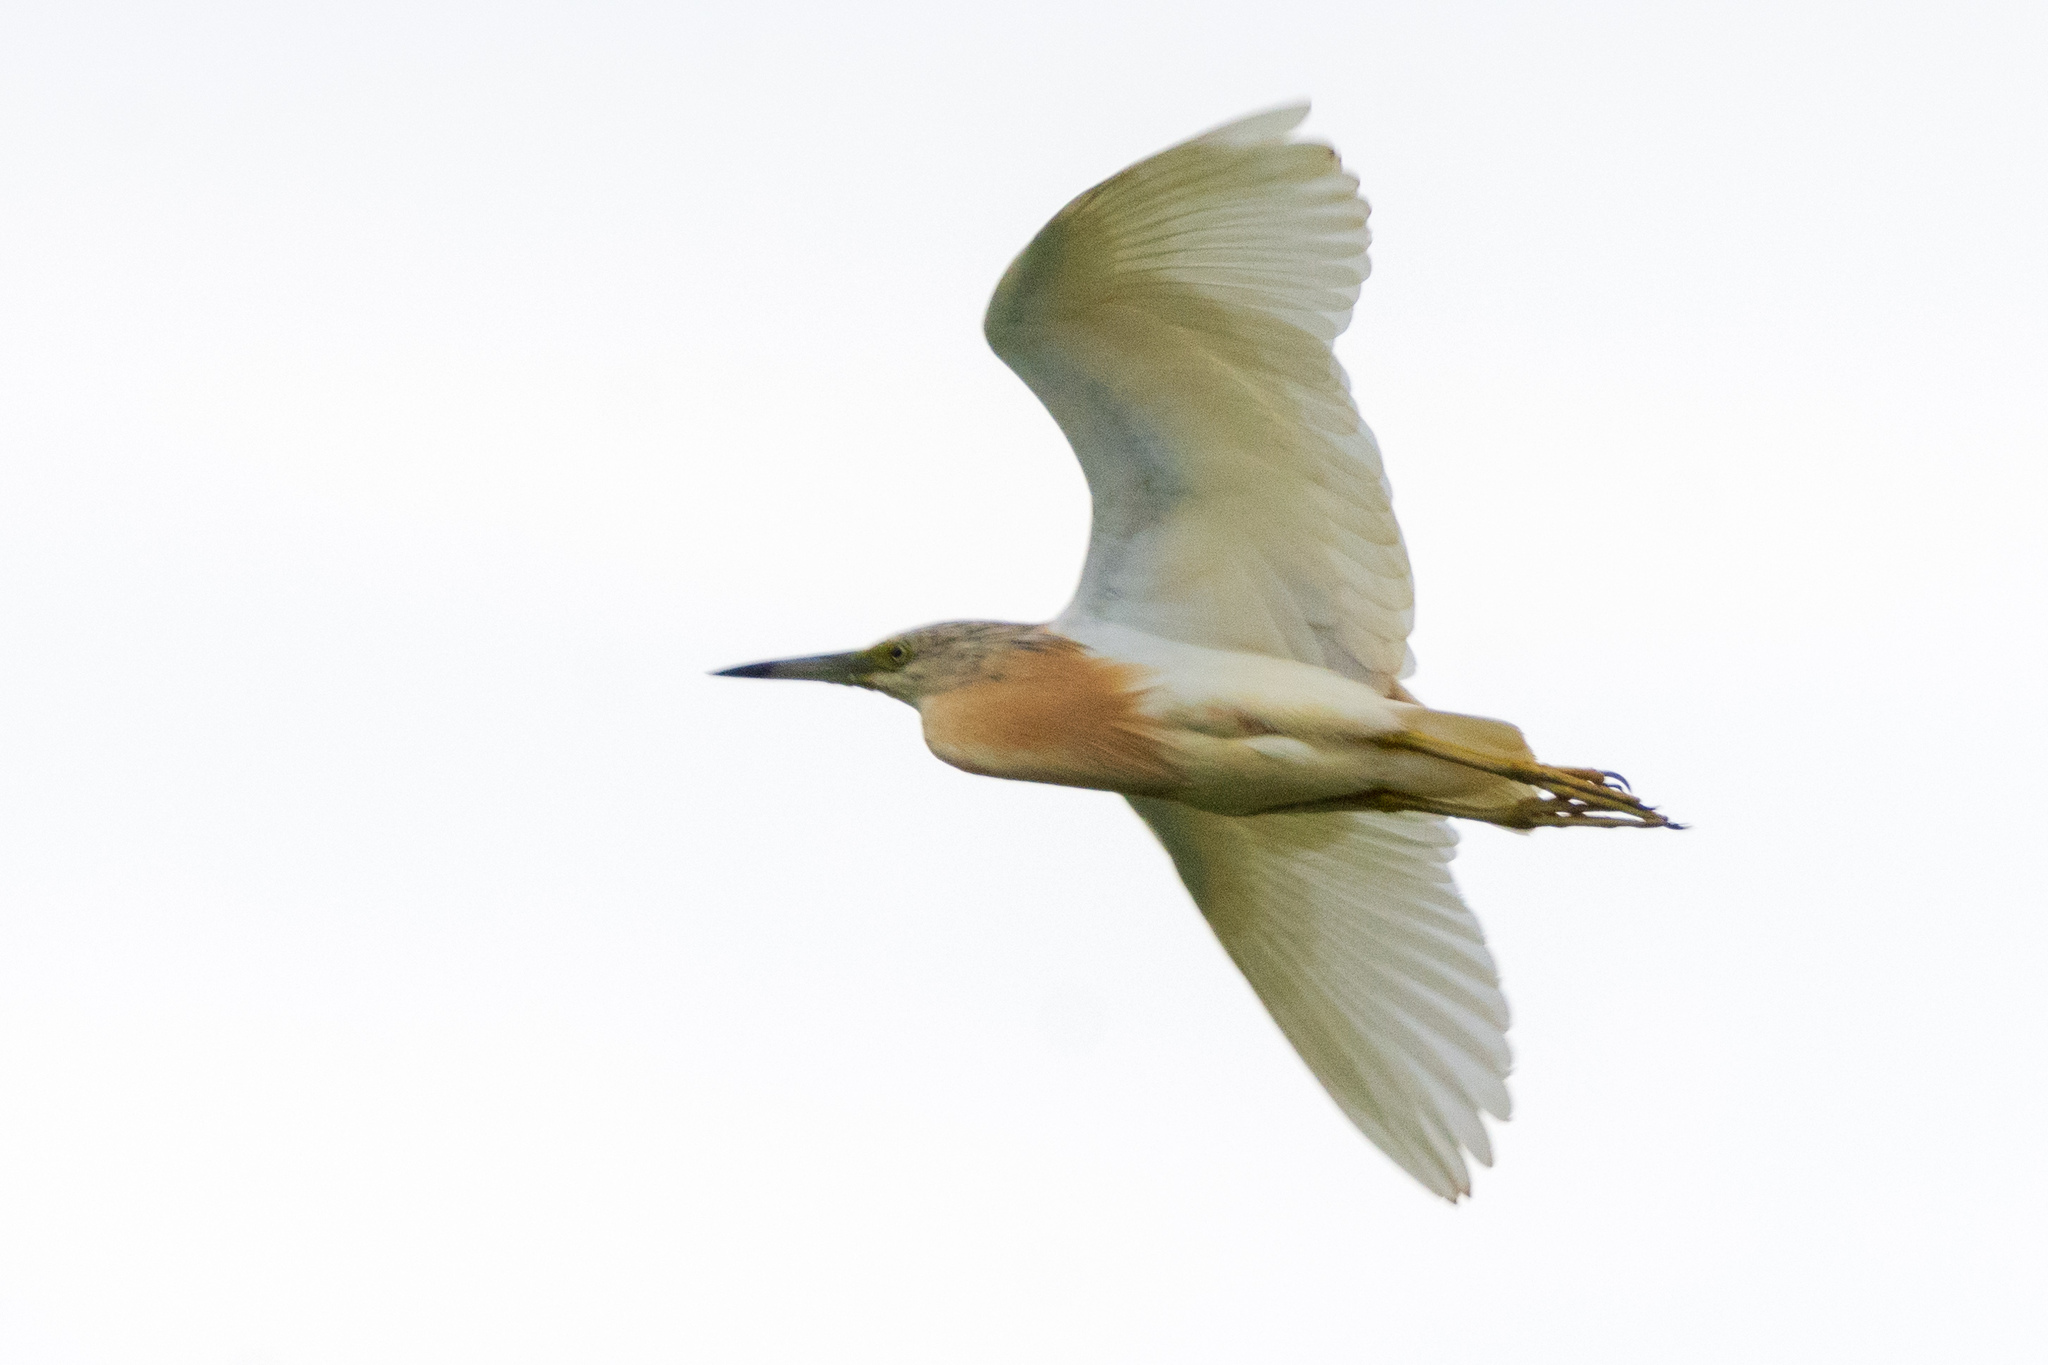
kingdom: Animalia
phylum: Chordata
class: Aves
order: Pelecaniformes
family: Ardeidae
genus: Ardeola
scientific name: Ardeola ralloides
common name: Squacco heron
